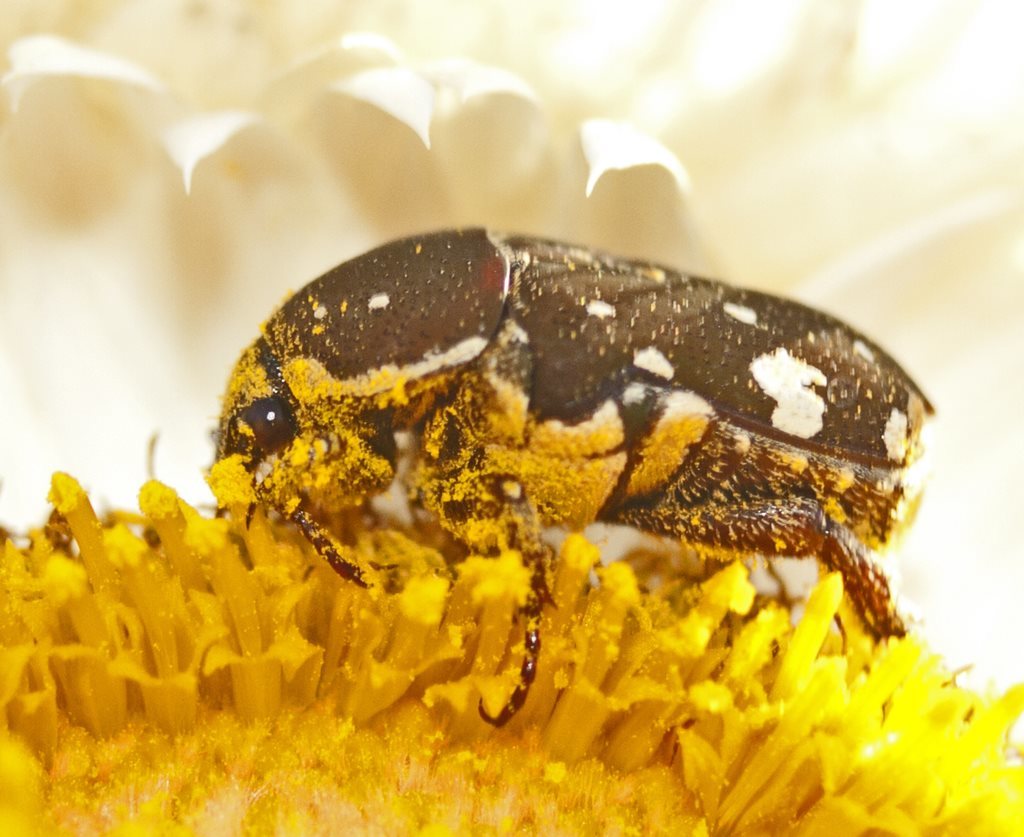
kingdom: Animalia
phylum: Arthropoda
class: Insecta
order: Coleoptera
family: Scarabaeidae
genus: Glycyphana
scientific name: Glycyphana stolata
